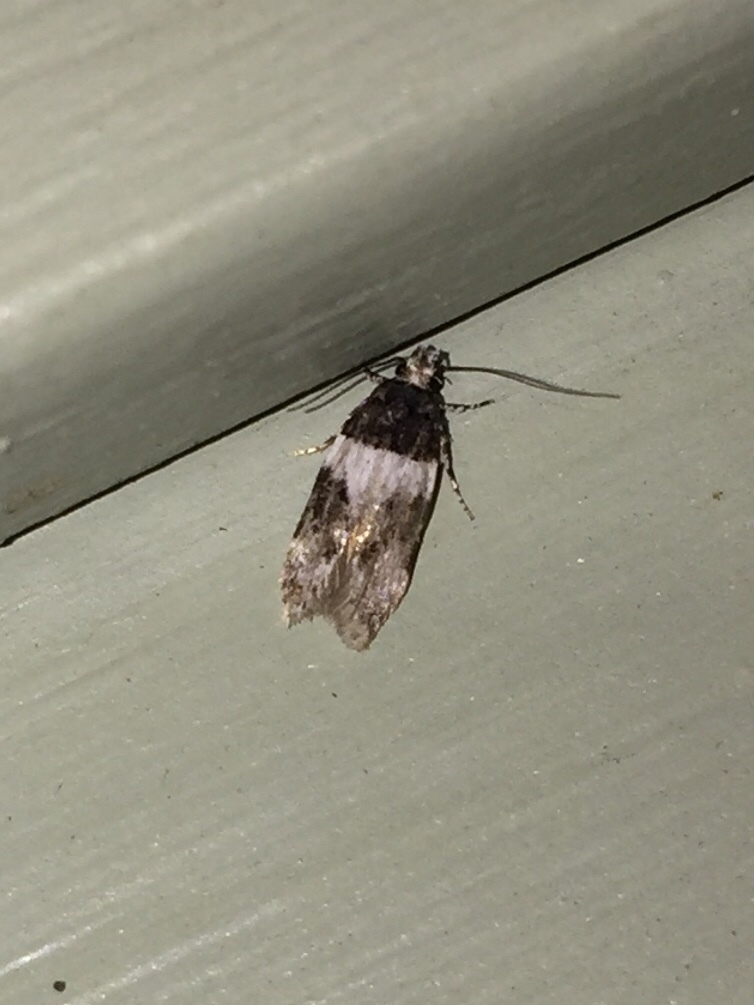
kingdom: Animalia
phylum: Arthropoda
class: Insecta
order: Lepidoptera
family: Gelechiidae
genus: Pubitelphusa
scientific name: Pubitelphusa latifasciella
